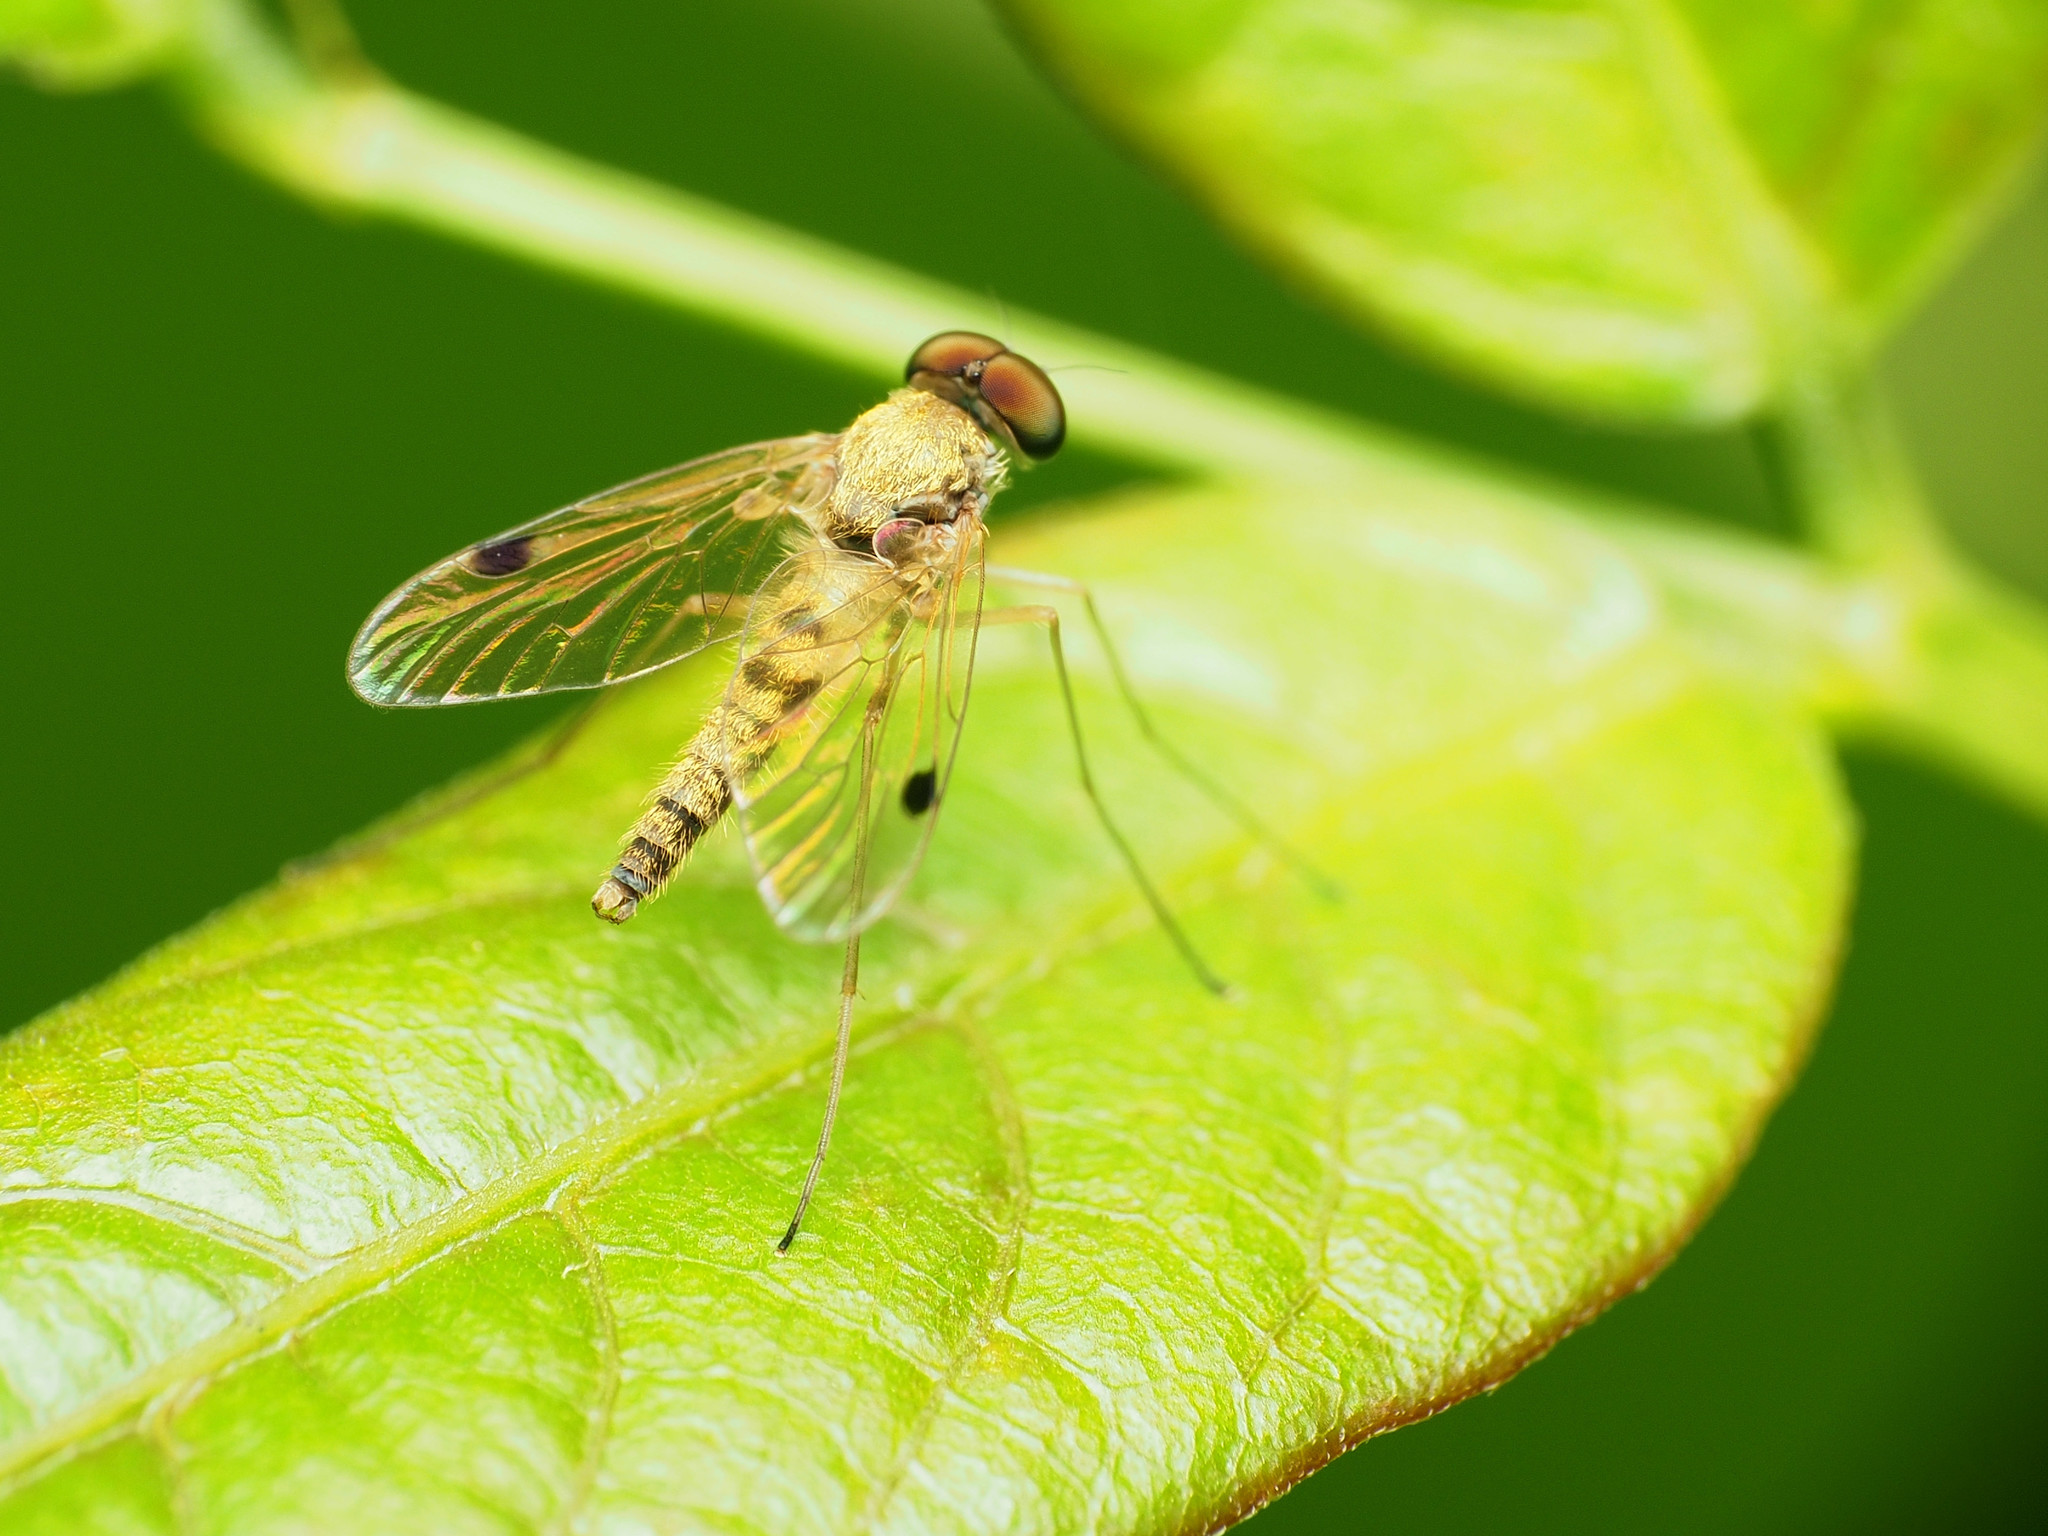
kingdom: Animalia
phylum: Arthropoda
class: Insecta
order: Diptera
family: Rhagionidae
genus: Chrysopilus
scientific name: Chrysopilus modestus
